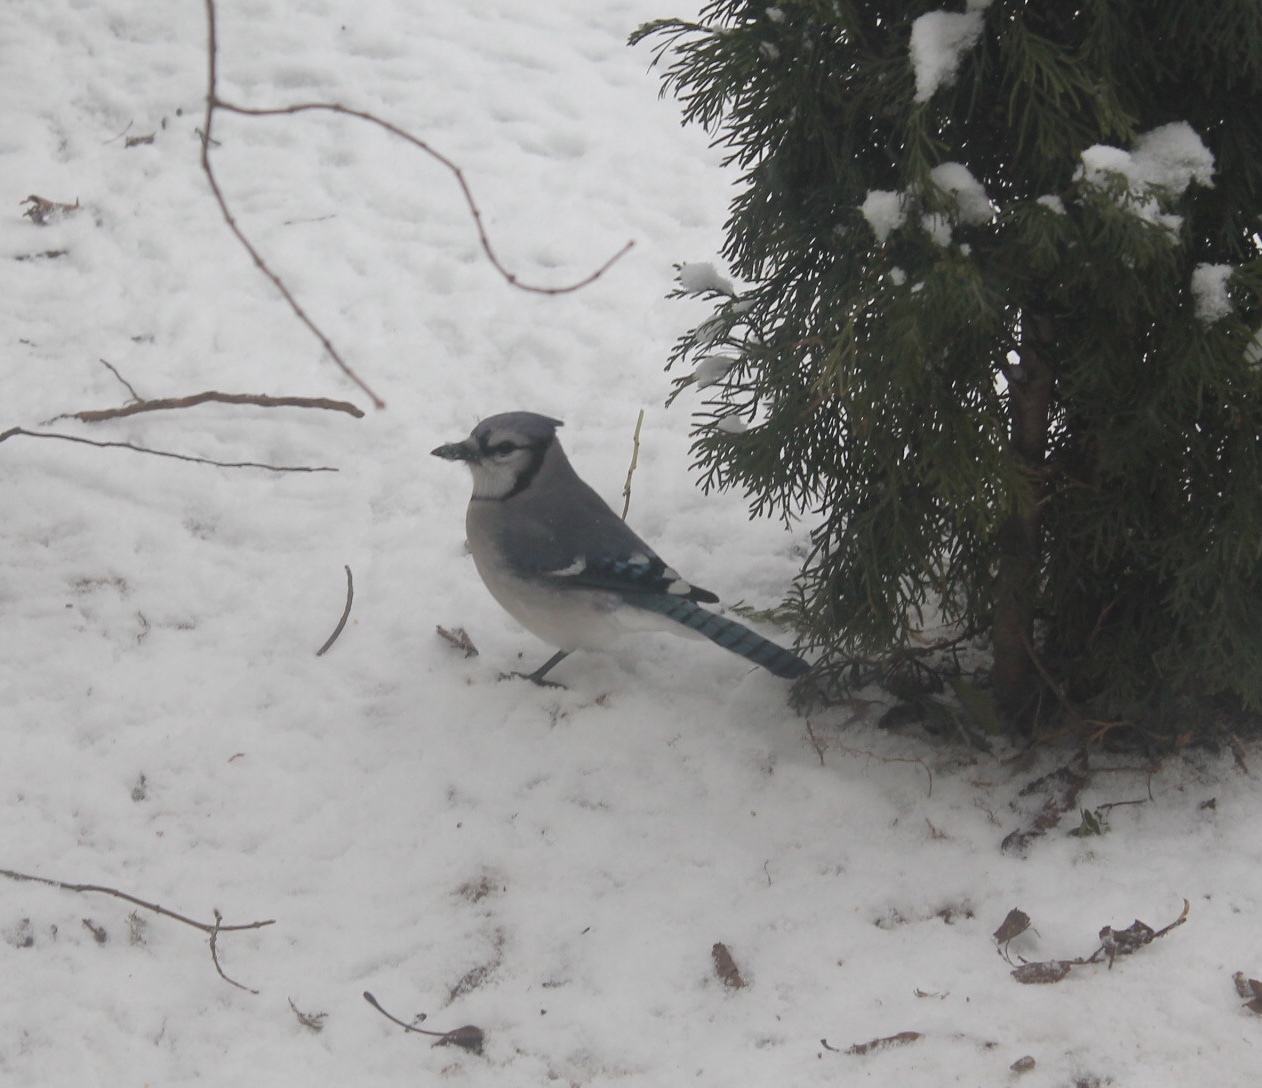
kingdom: Animalia
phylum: Chordata
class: Aves
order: Passeriformes
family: Corvidae
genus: Cyanocitta
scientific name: Cyanocitta cristata
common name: Blue jay
